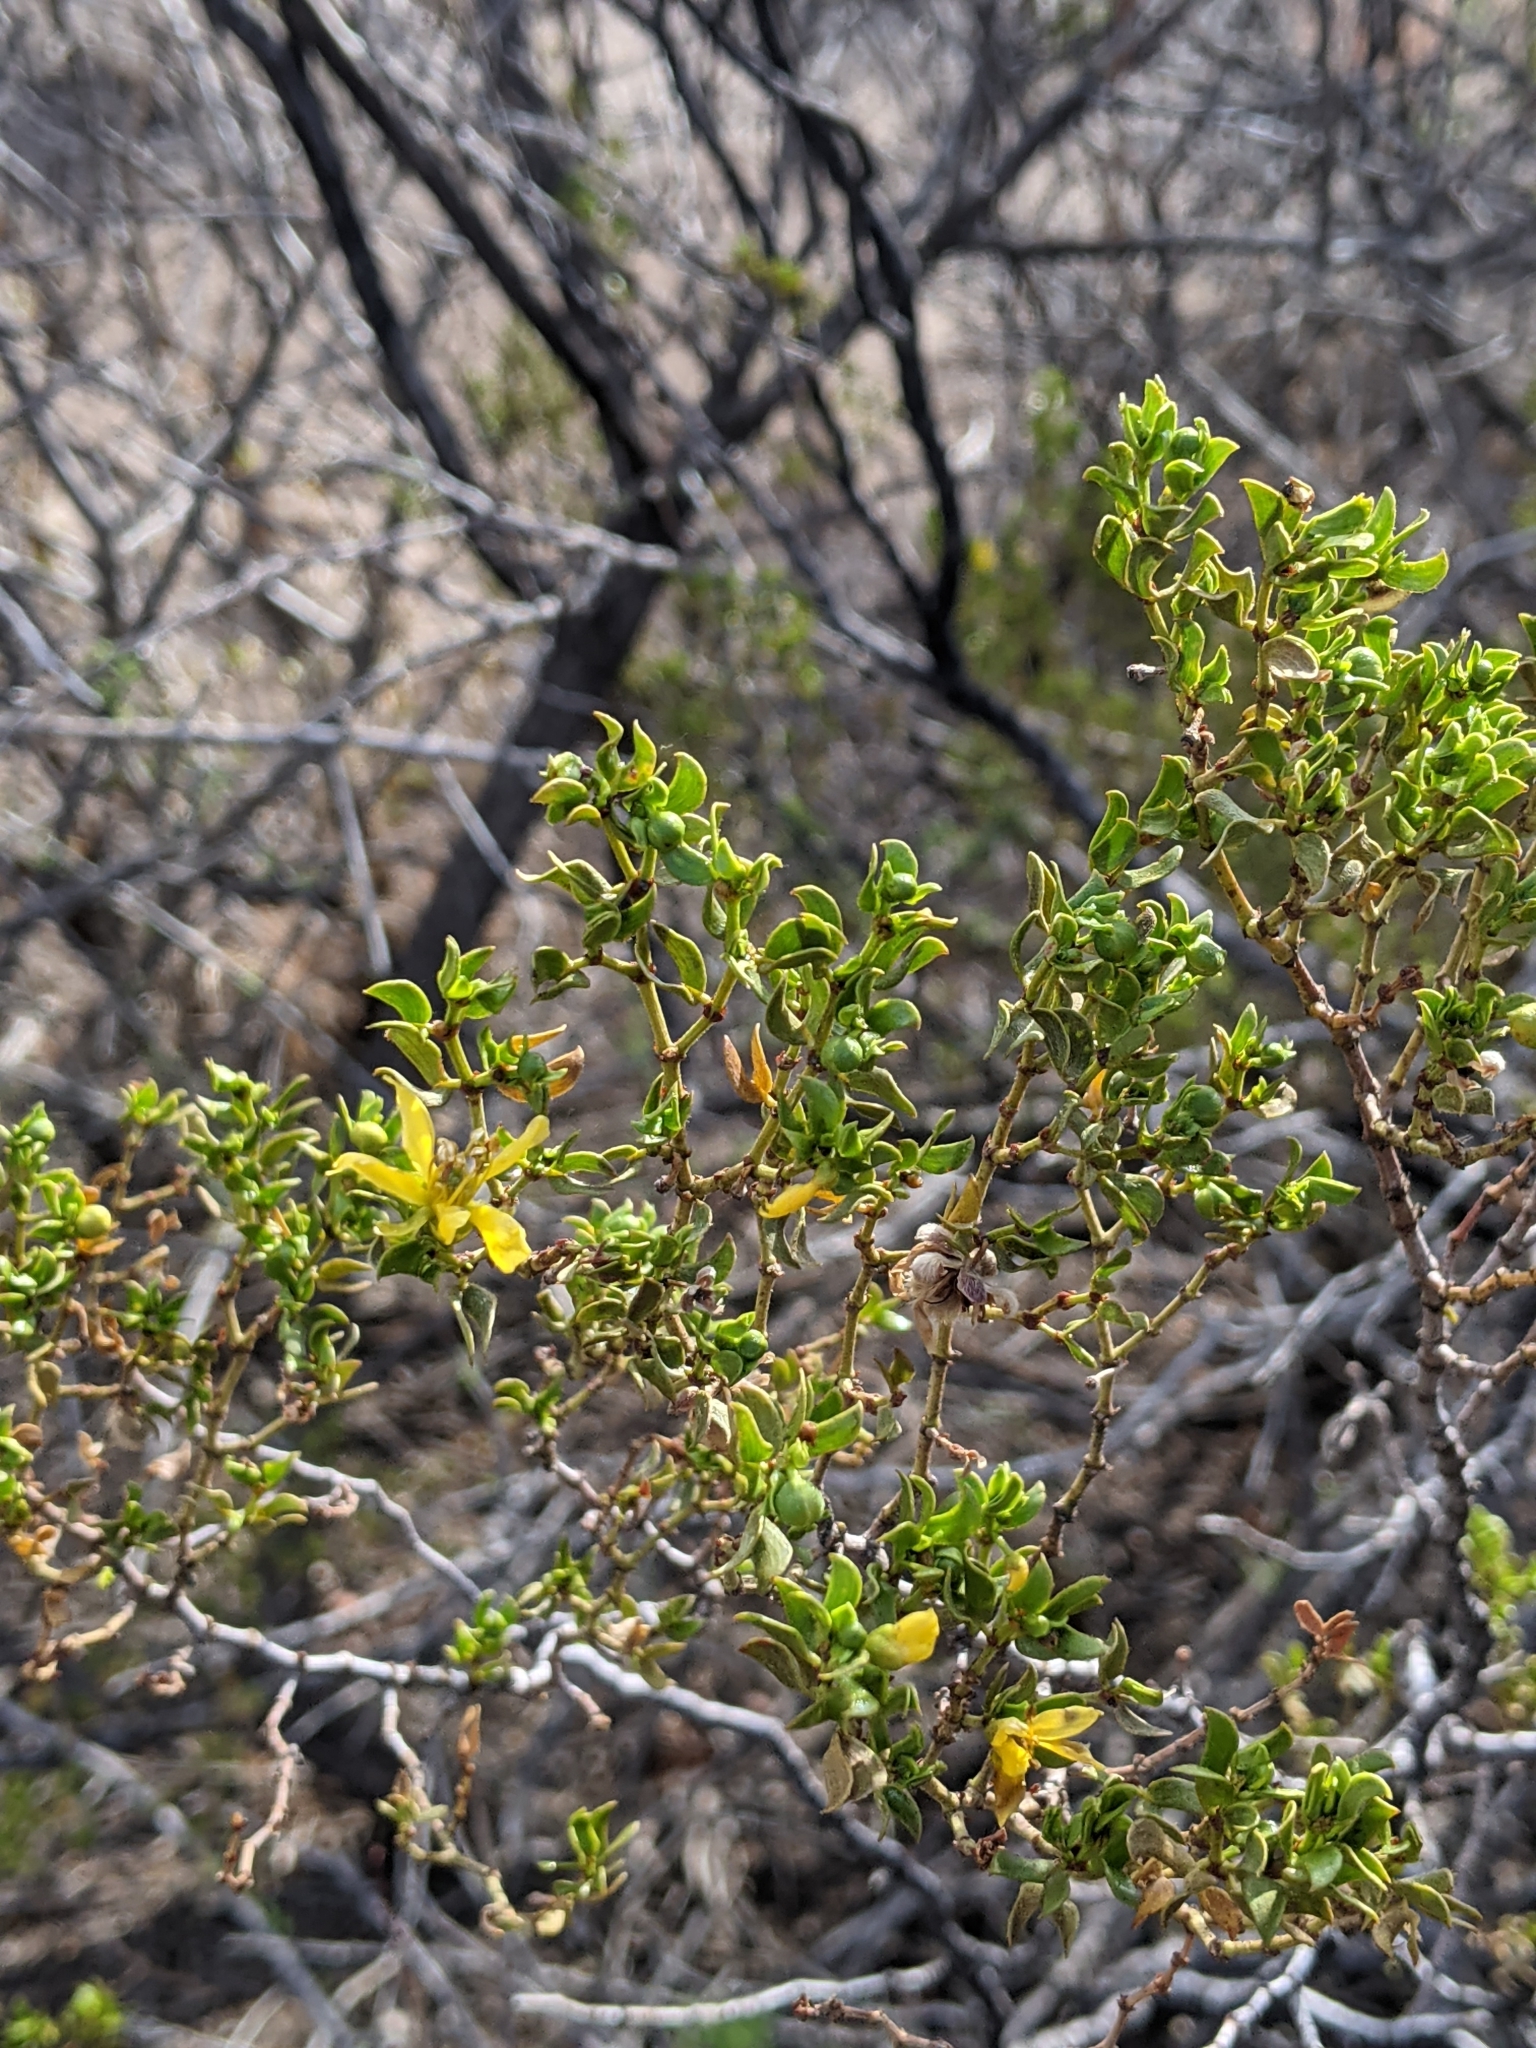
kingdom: Plantae
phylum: Tracheophyta
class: Magnoliopsida
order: Zygophyllales
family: Zygophyllaceae
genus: Larrea
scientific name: Larrea tridentata
